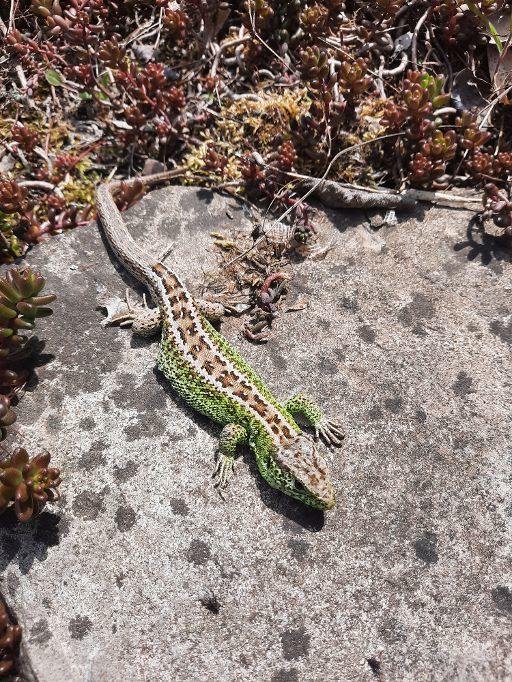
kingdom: Animalia
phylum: Chordata
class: Squamata
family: Lacertidae
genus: Lacerta
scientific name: Lacerta agilis
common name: Sand lizard
